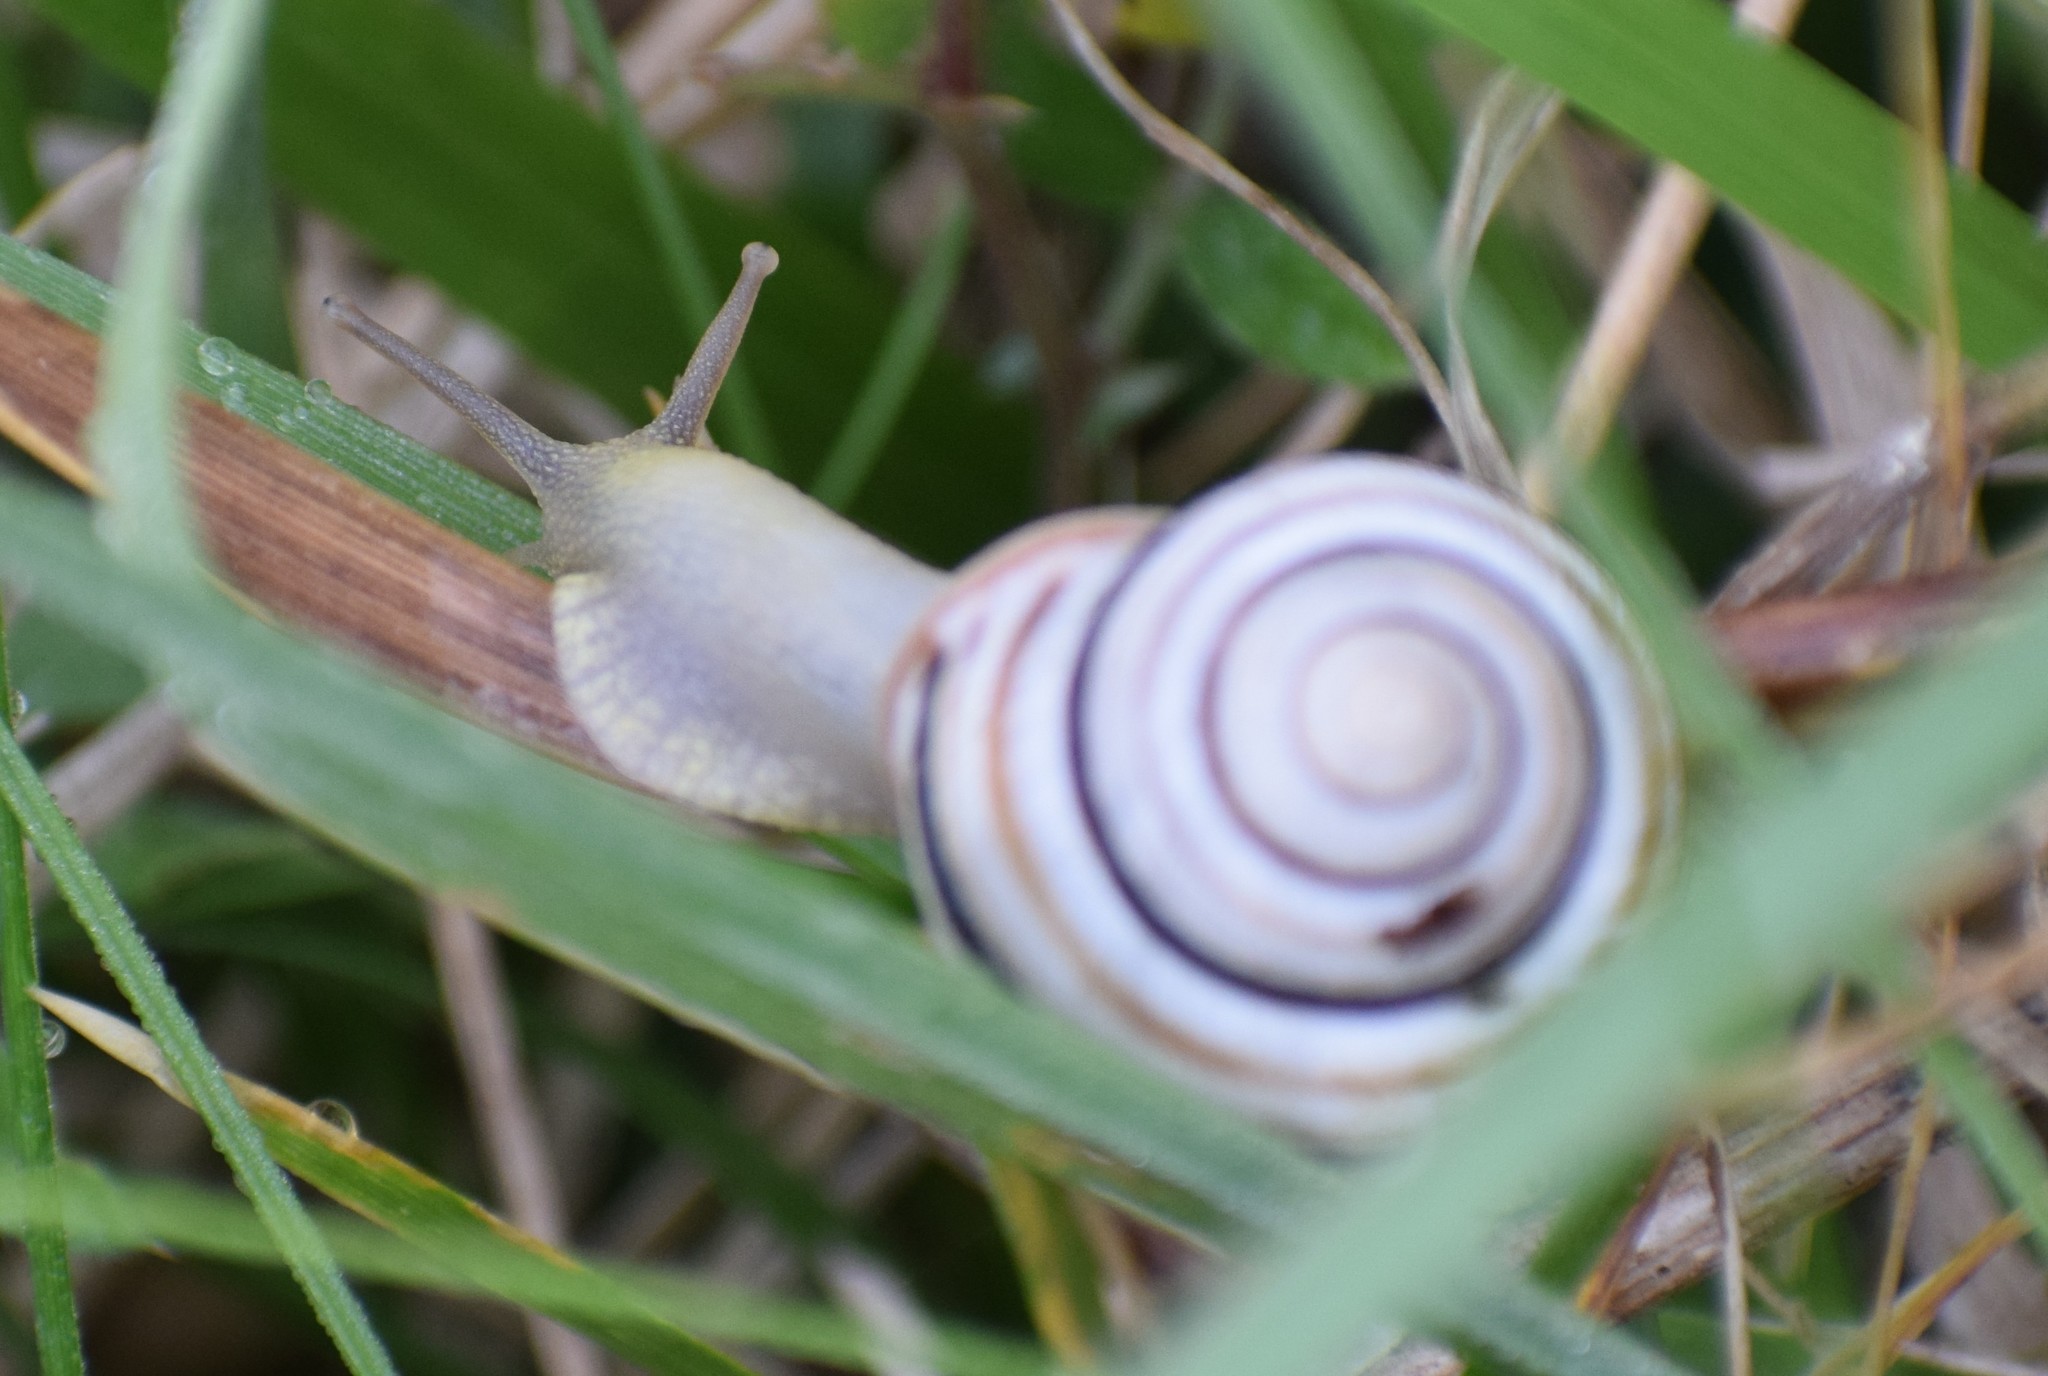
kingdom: Animalia
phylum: Mollusca
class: Gastropoda
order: Stylommatophora
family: Helicidae
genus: Caucasotachea
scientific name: Caucasotachea vindobonensis
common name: European helicid land snail
